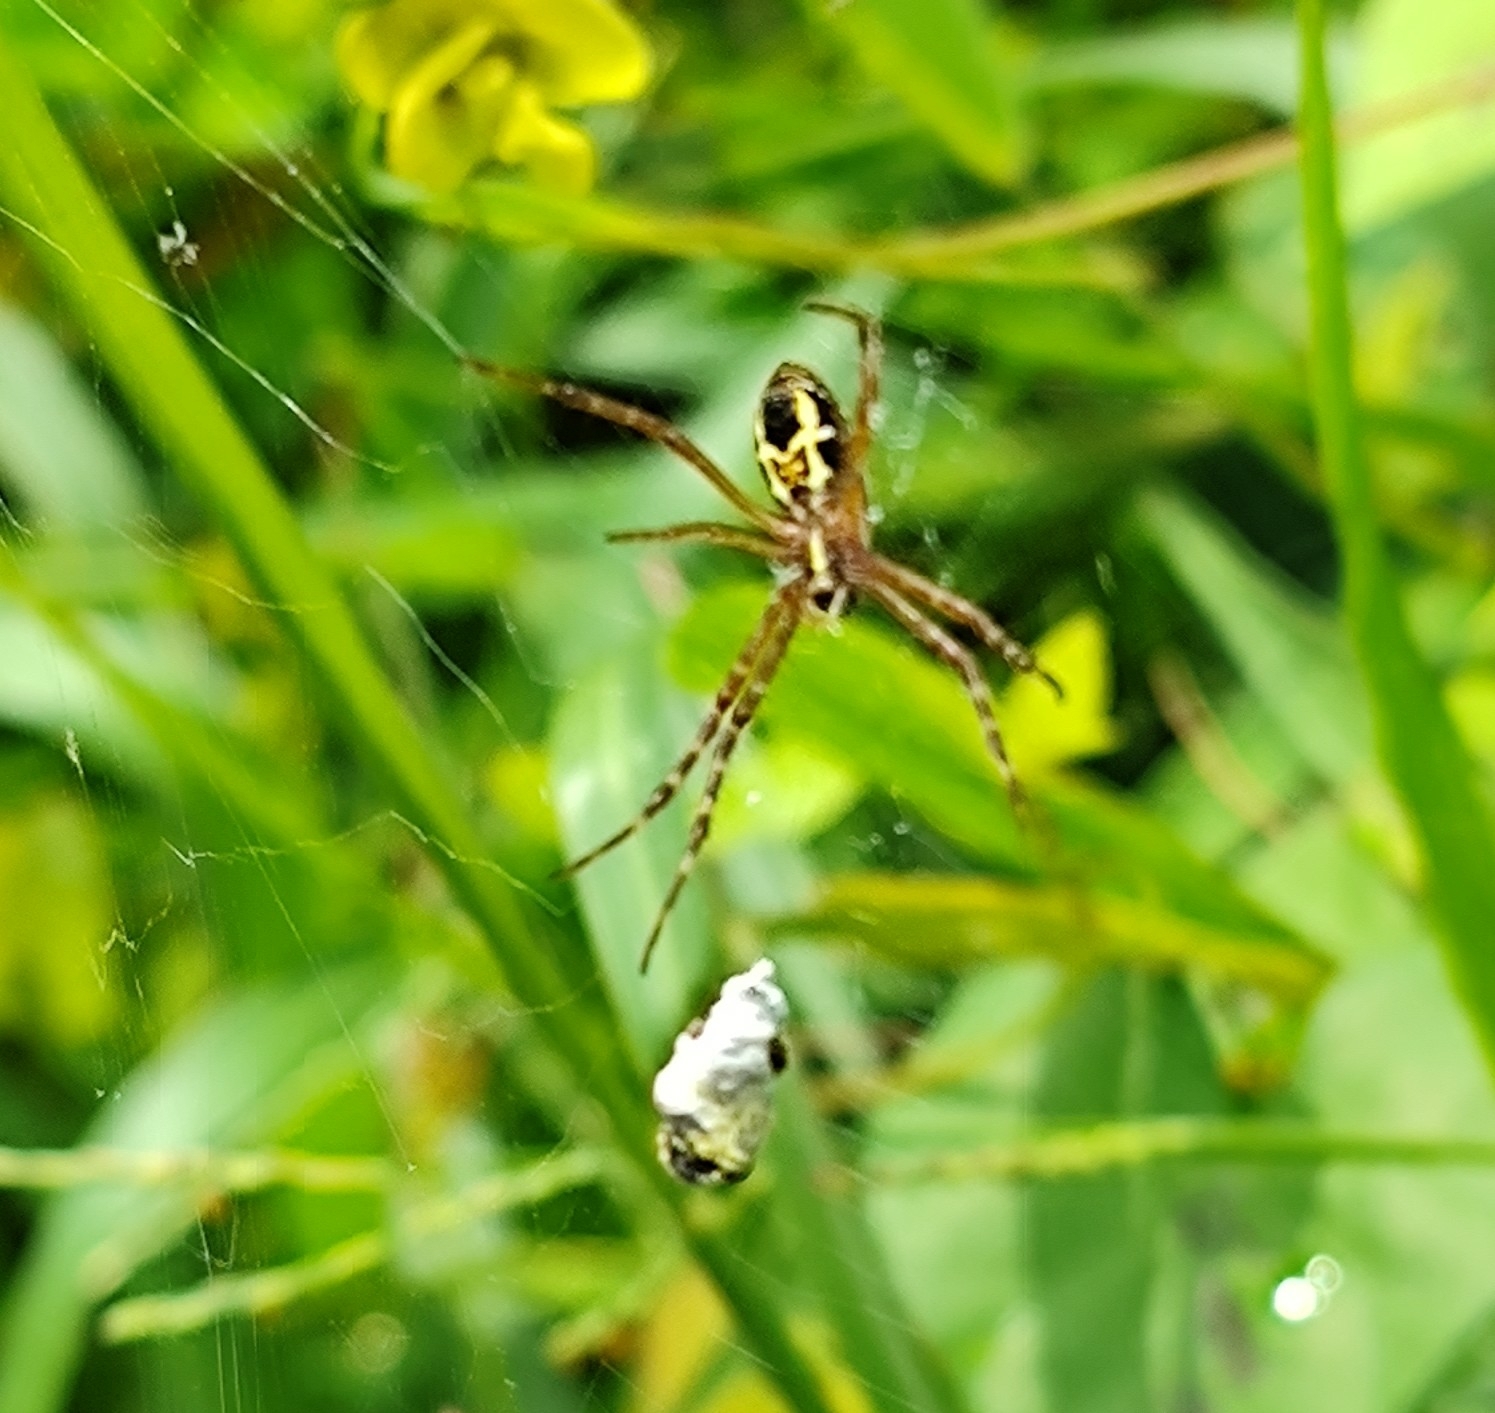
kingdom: Animalia
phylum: Arthropoda
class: Arachnida
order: Araneae
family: Araneidae
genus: Argiope
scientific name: Argiope catenulata
